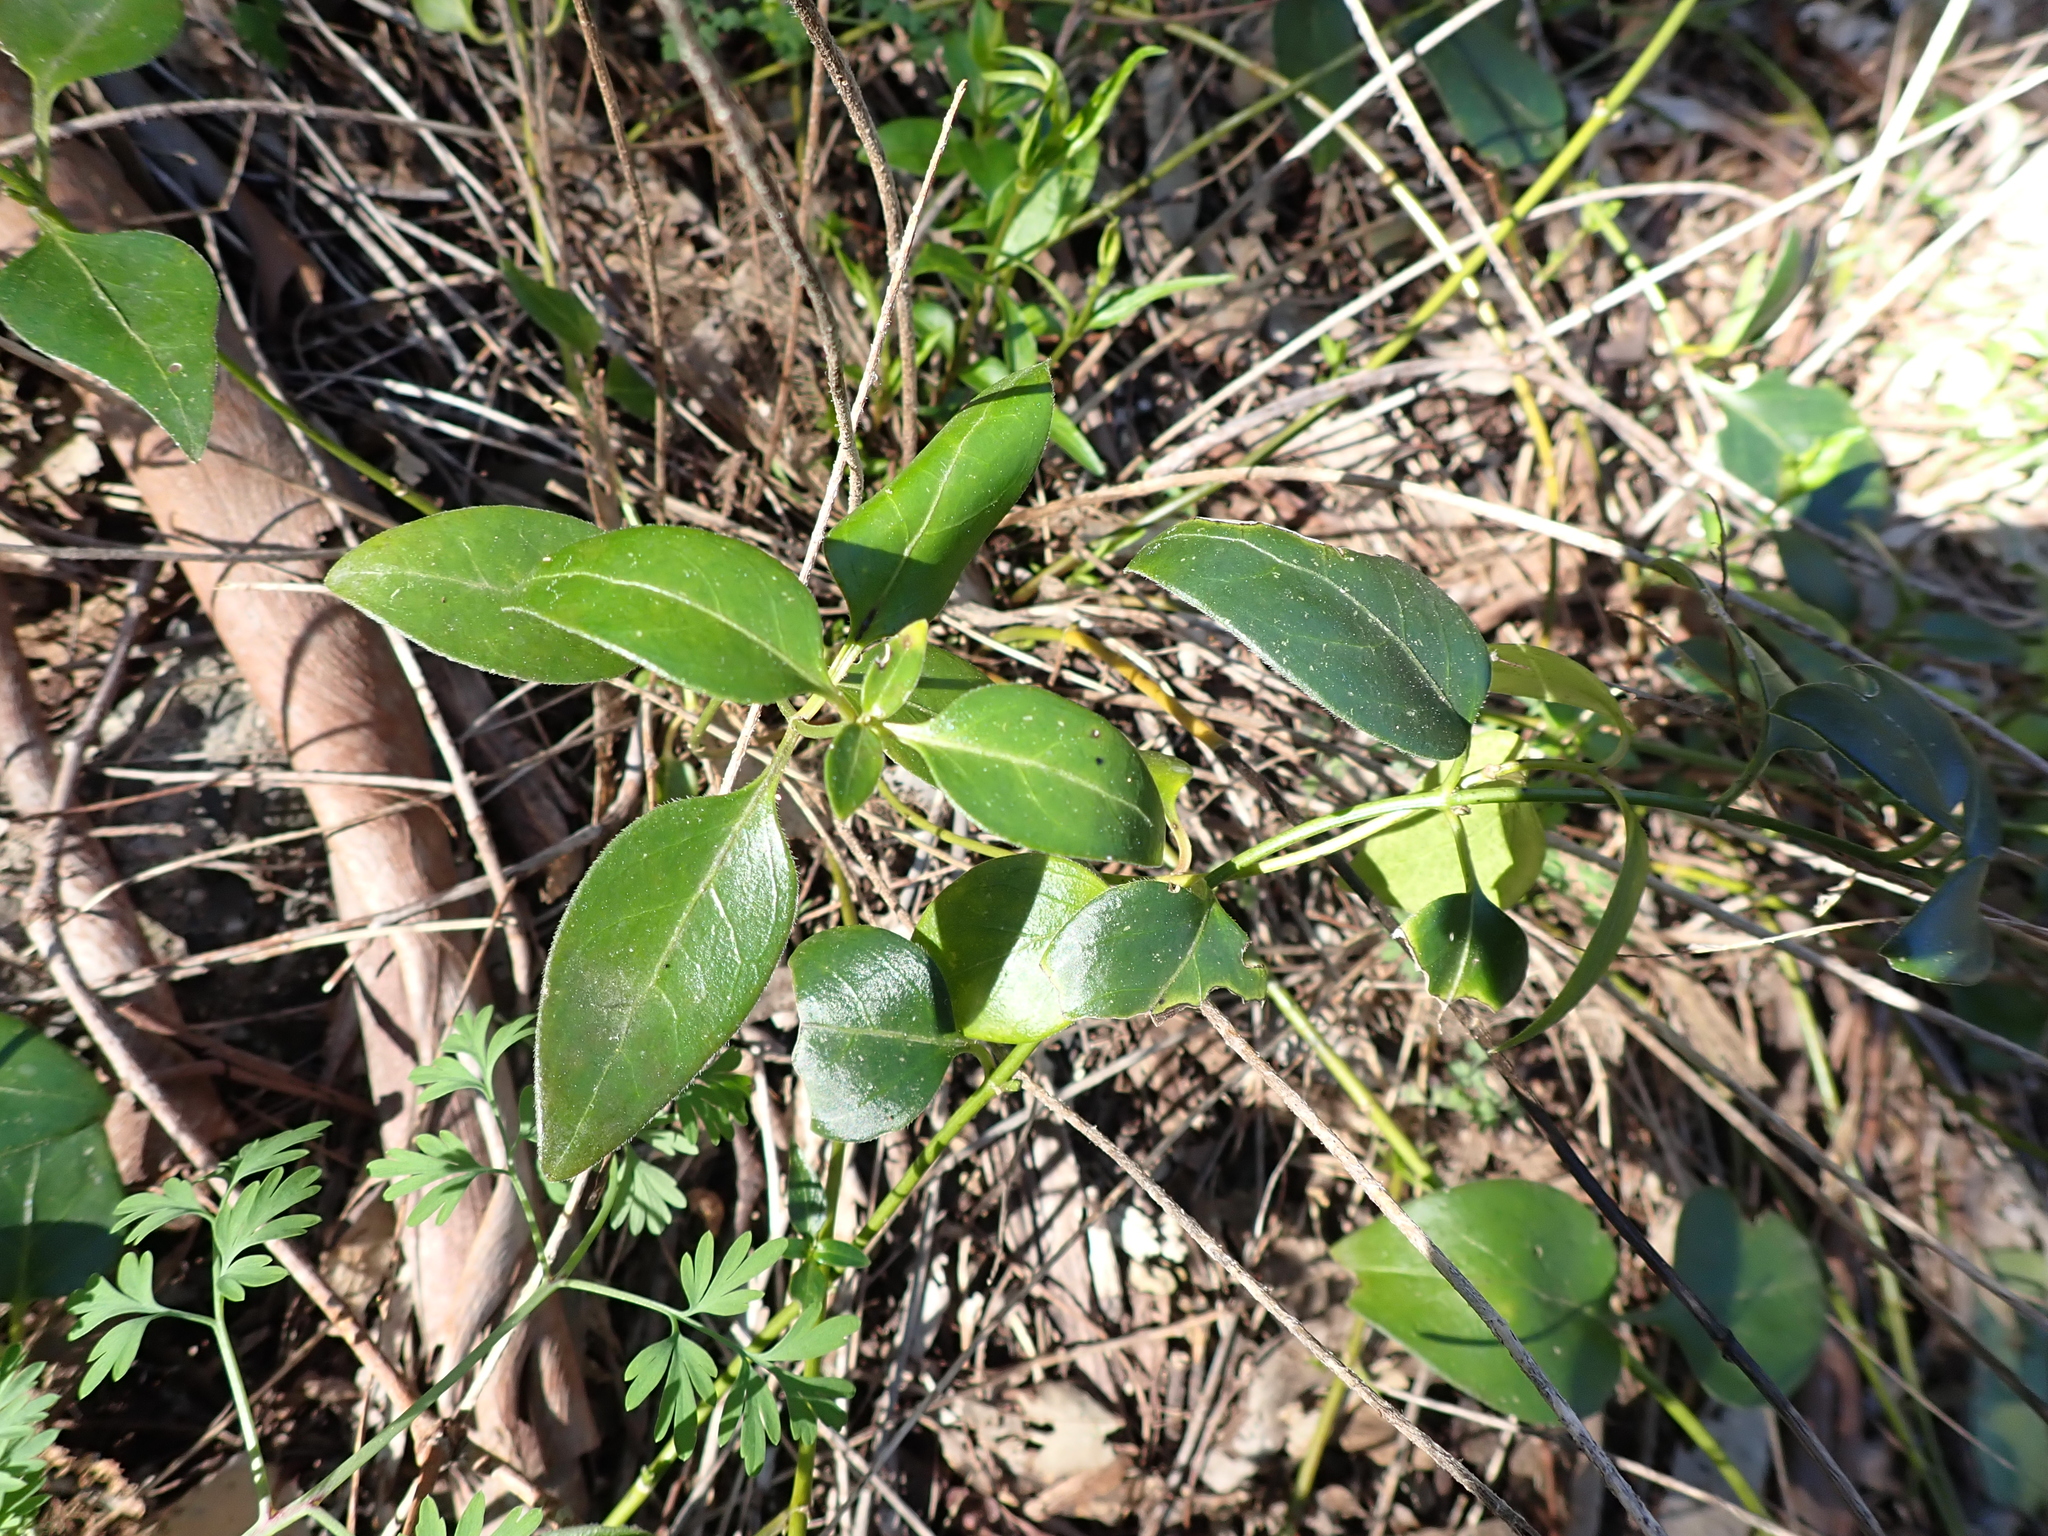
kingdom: Plantae
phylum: Tracheophyta
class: Magnoliopsida
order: Gentianales
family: Apocynaceae
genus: Vinca
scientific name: Vinca major
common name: Greater periwinkle
